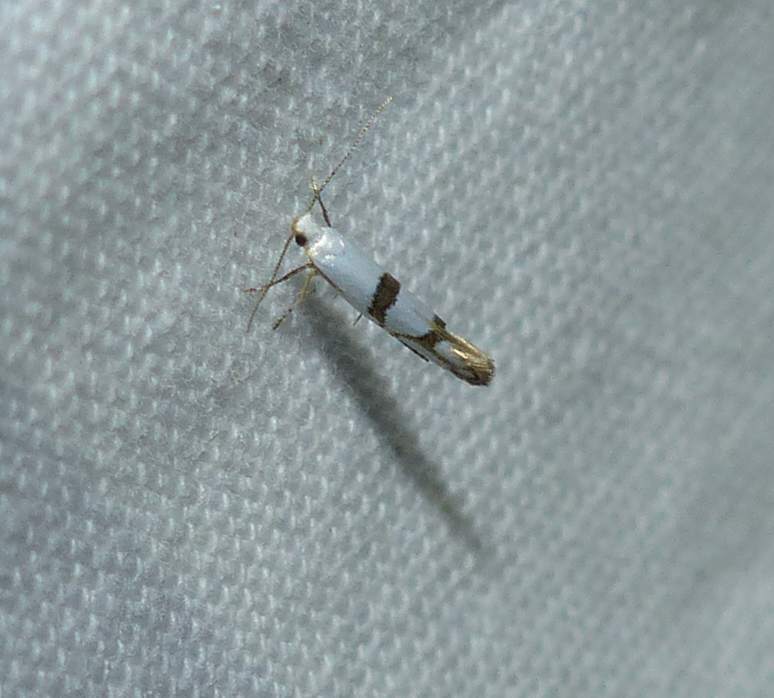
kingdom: Animalia
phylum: Arthropoda
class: Insecta
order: Lepidoptera
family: Argyresthiidae
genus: Argyresthia
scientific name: Argyresthia oreasella
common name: Cherry shoot borer moth
